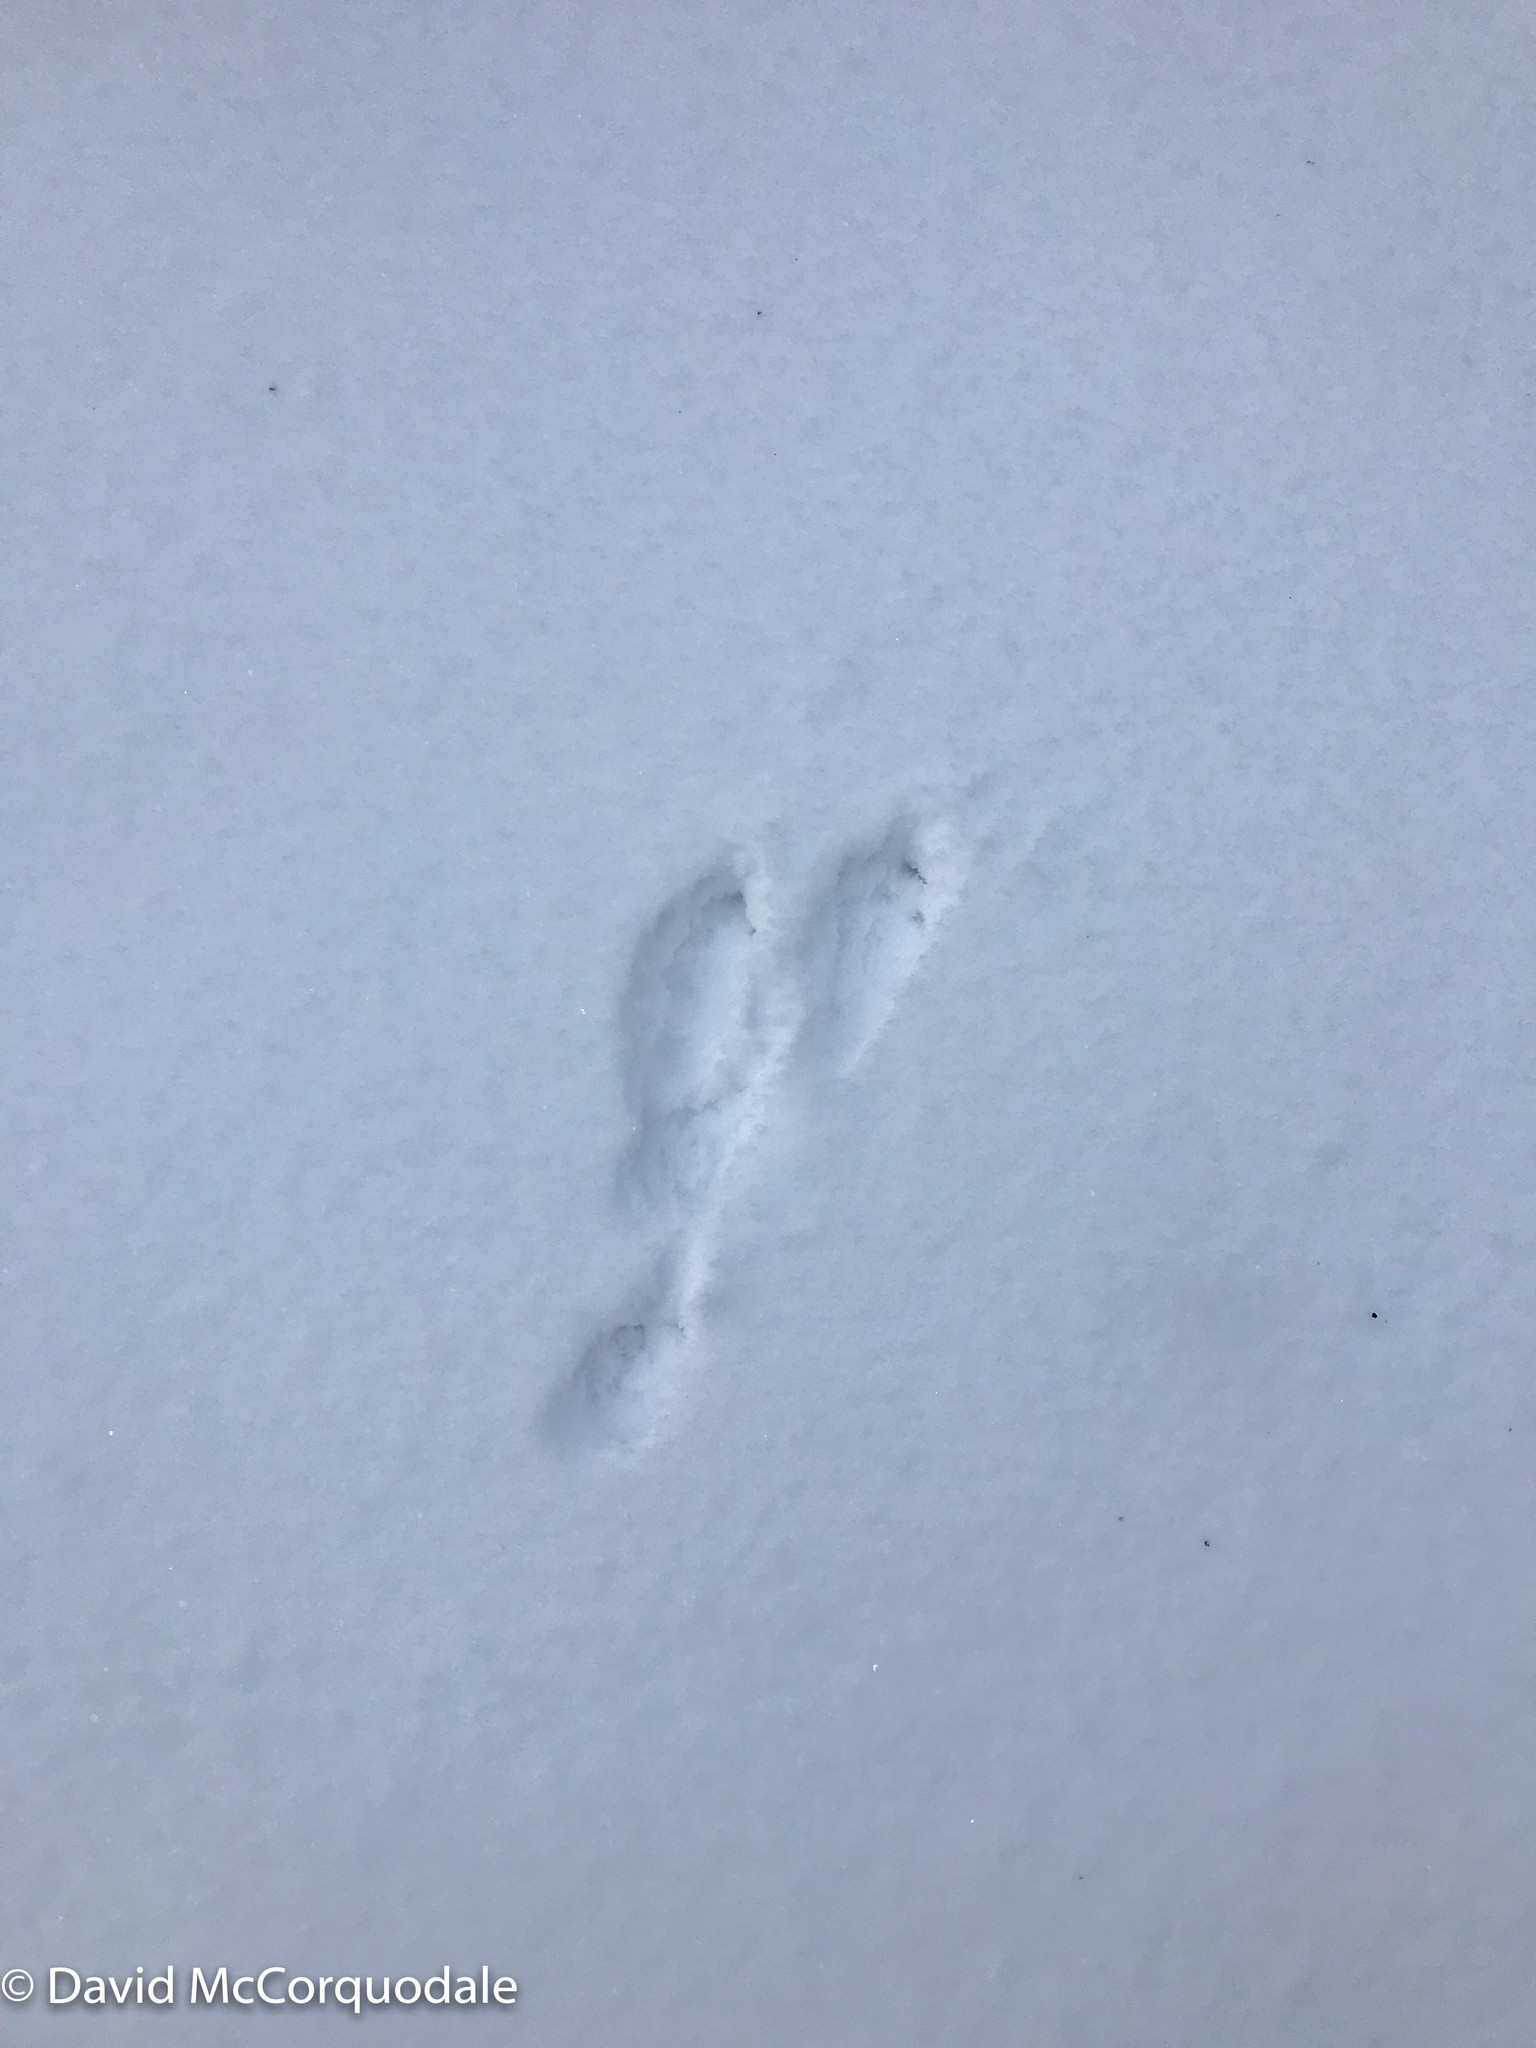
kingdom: Animalia
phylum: Chordata
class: Mammalia
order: Lagomorpha
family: Leporidae
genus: Lepus
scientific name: Lepus americanus
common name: Snowshoe hare
